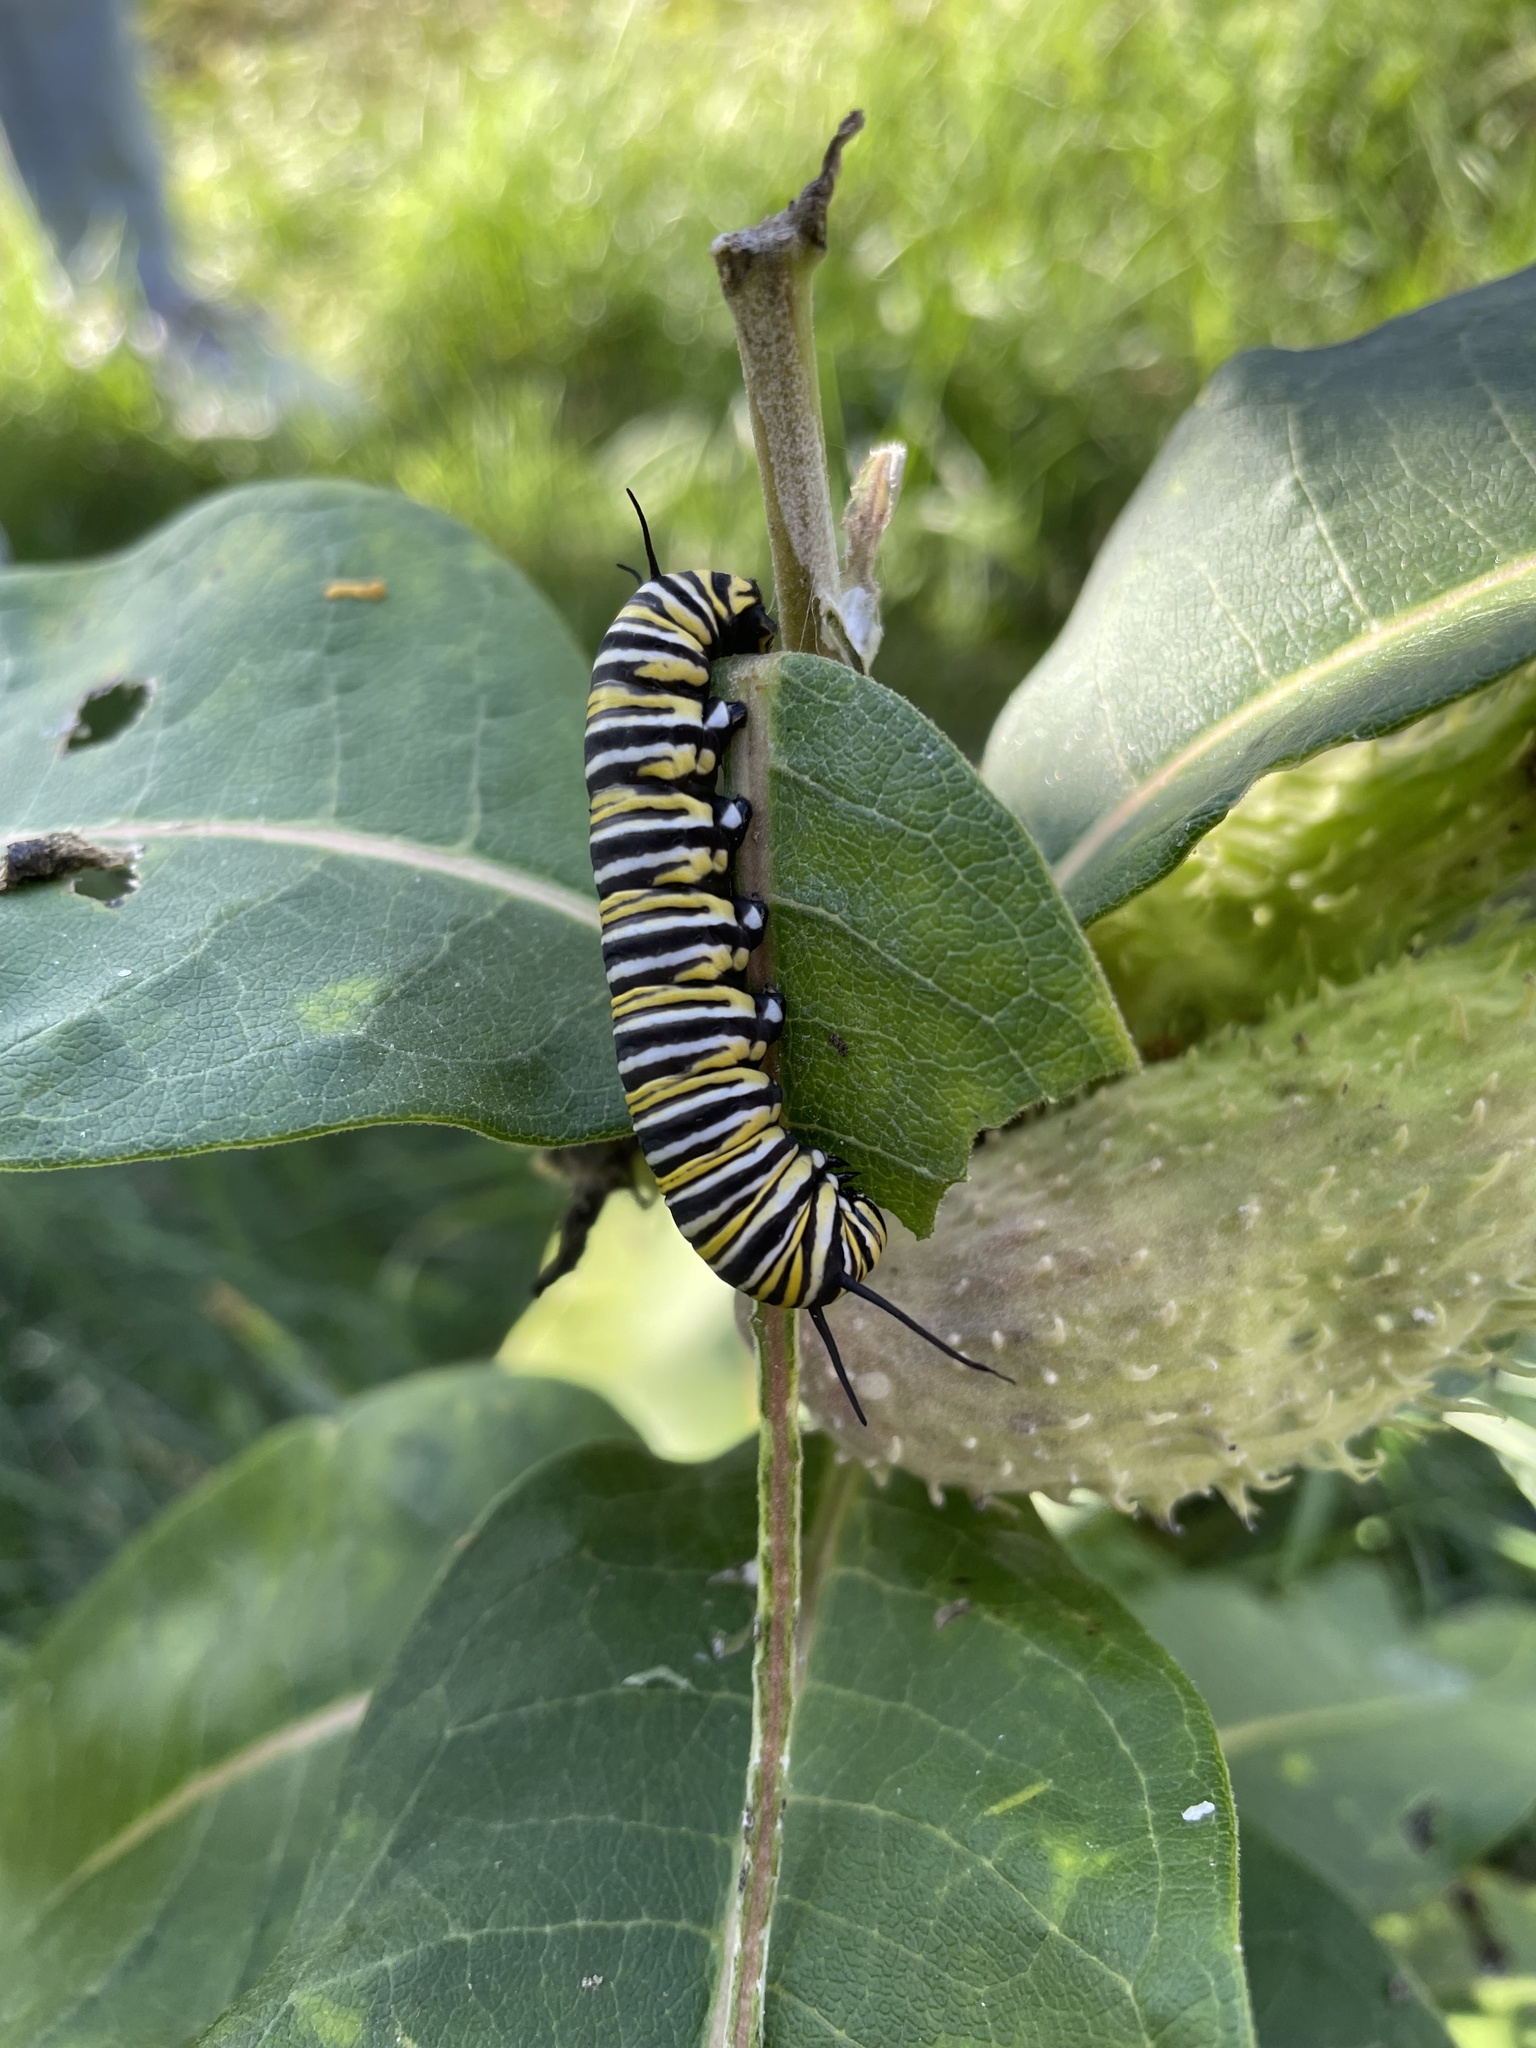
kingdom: Animalia
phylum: Arthropoda
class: Insecta
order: Lepidoptera
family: Nymphalidae
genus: Danaus
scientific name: Danaus plexippus
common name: Monarch
